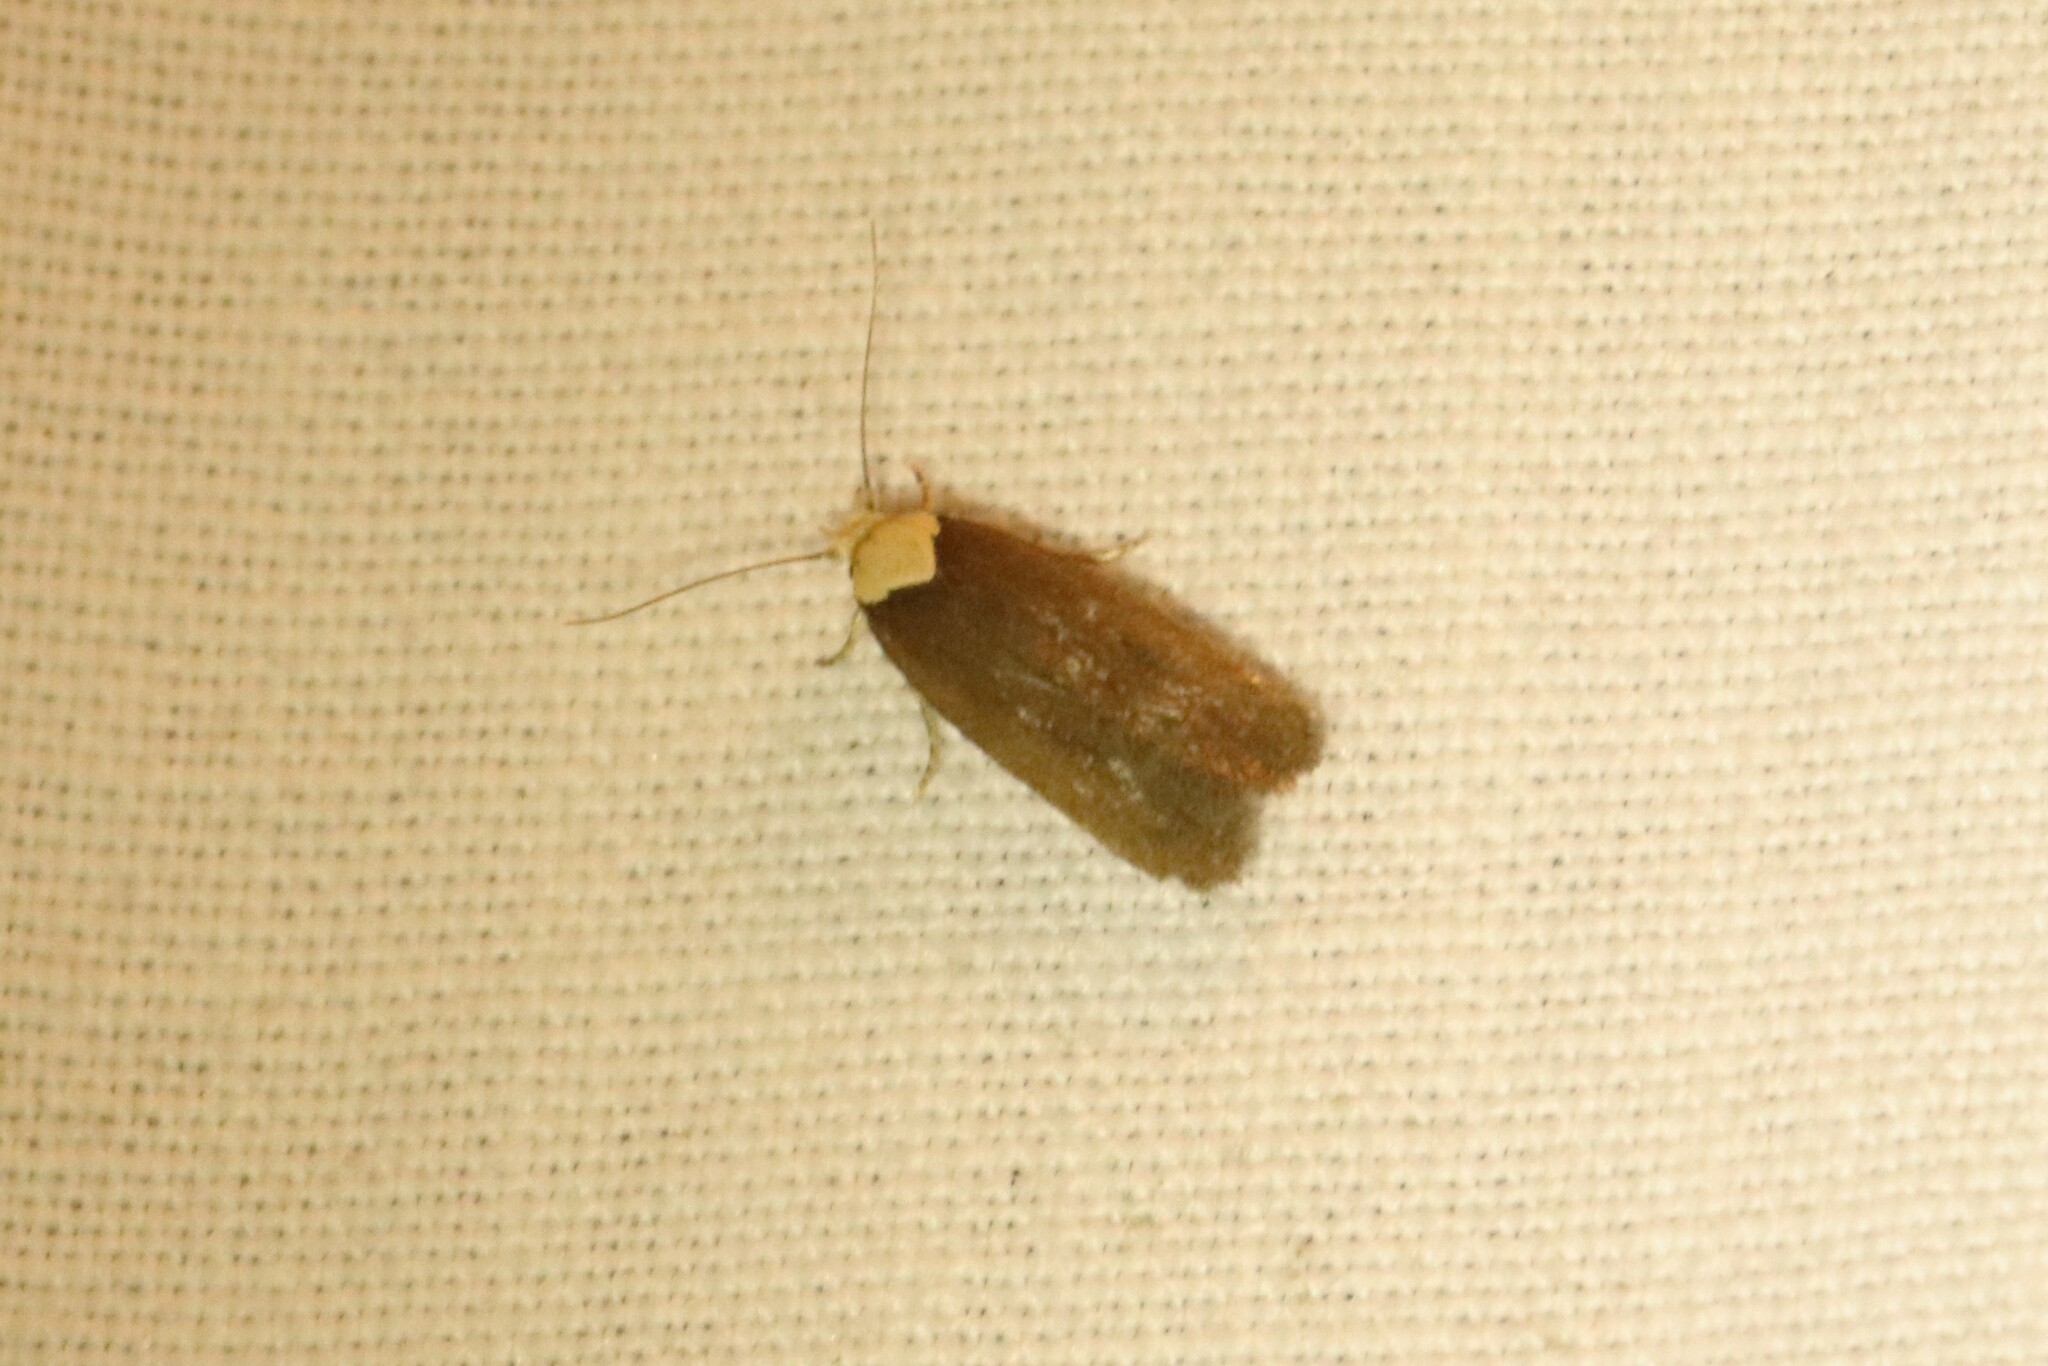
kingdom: Animalia
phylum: Arthropoda
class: Insecta
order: Lepidoptera
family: Depressariidae
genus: Depressaria
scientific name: Depressaria depressana
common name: Lost flat-body
